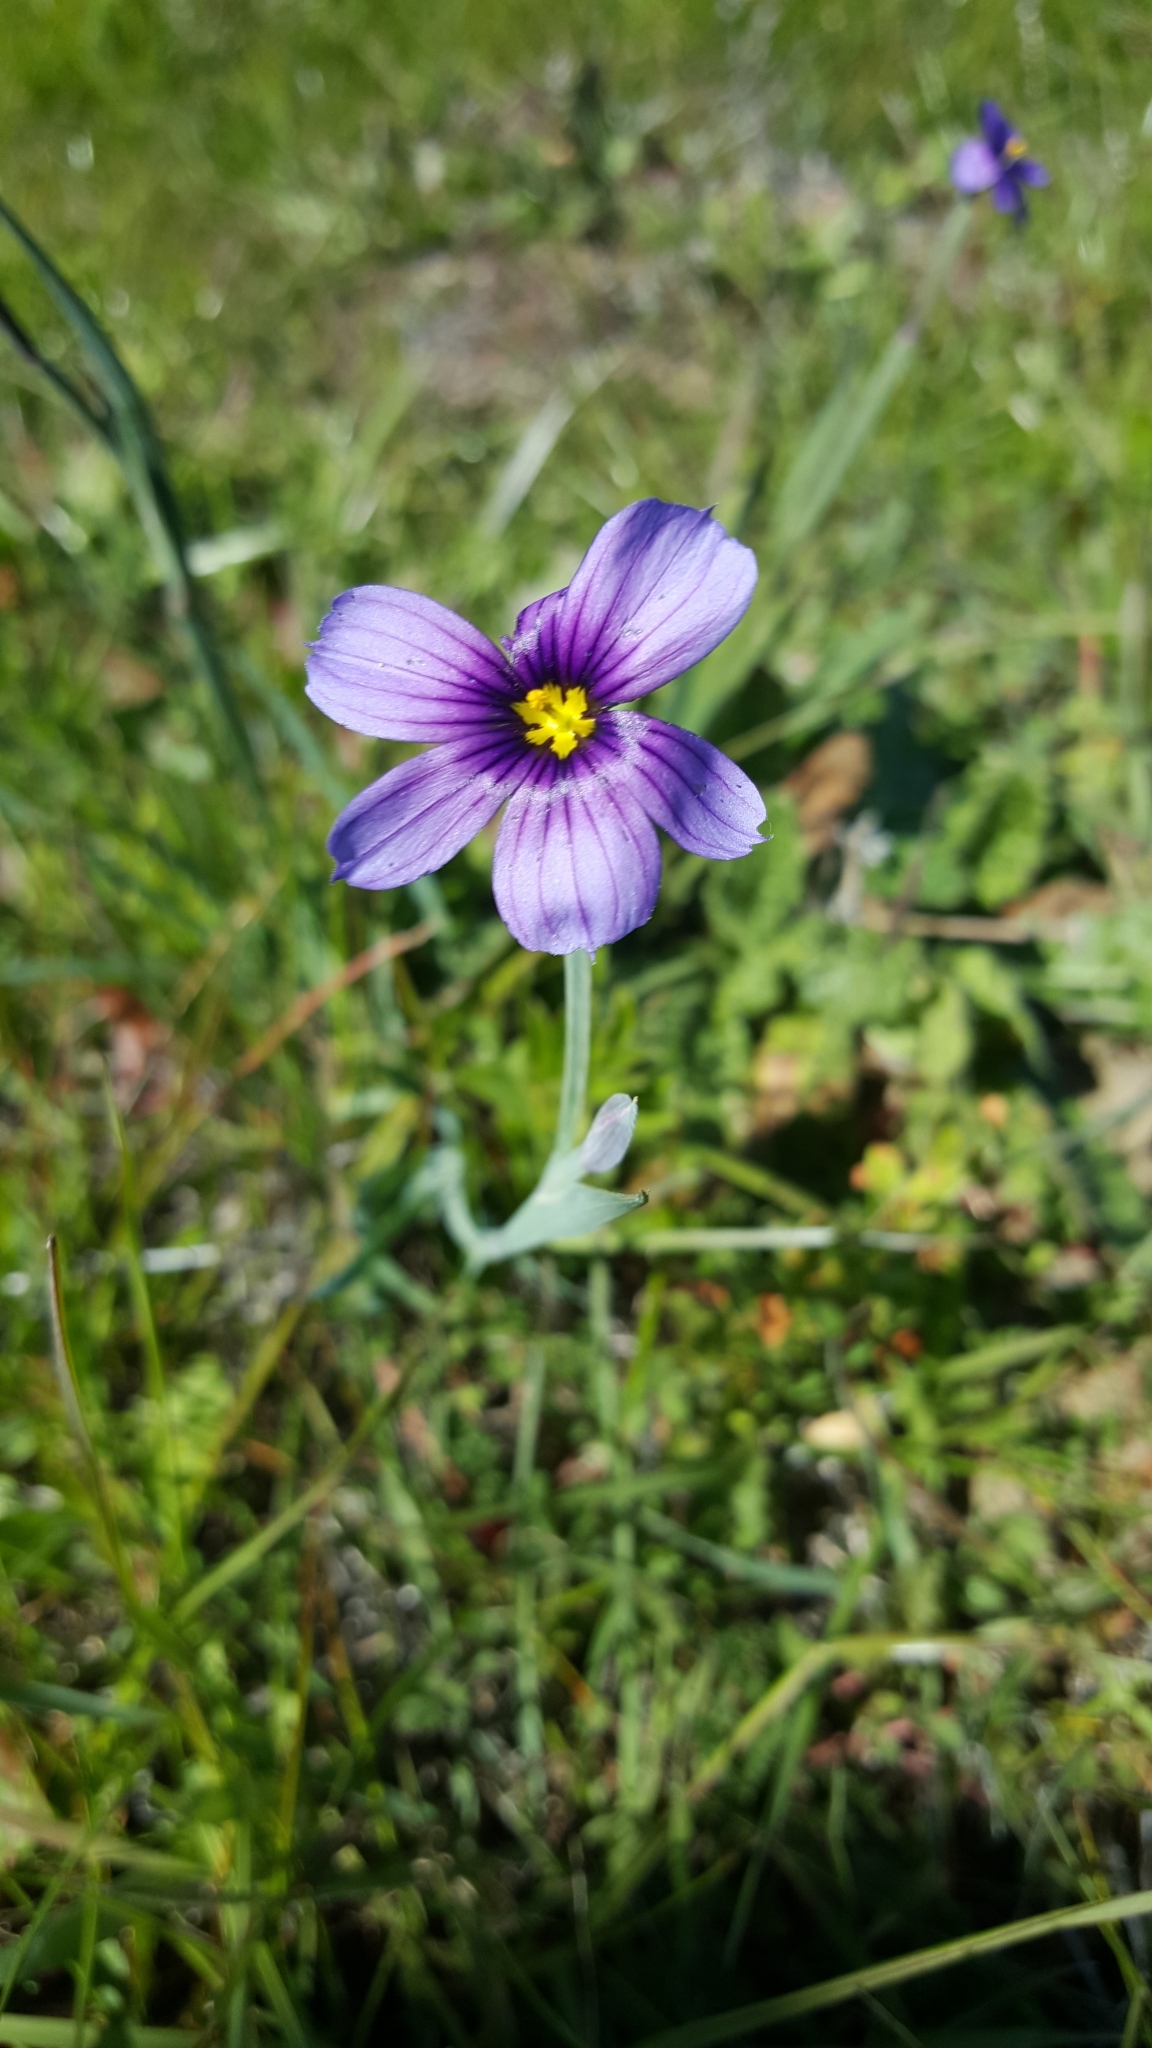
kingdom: Plantae
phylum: Tracheophyta
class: Liliopsida
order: Asparagales
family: Iridaceae
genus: Sisyrinchium
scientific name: Sisyrinchium bellum
